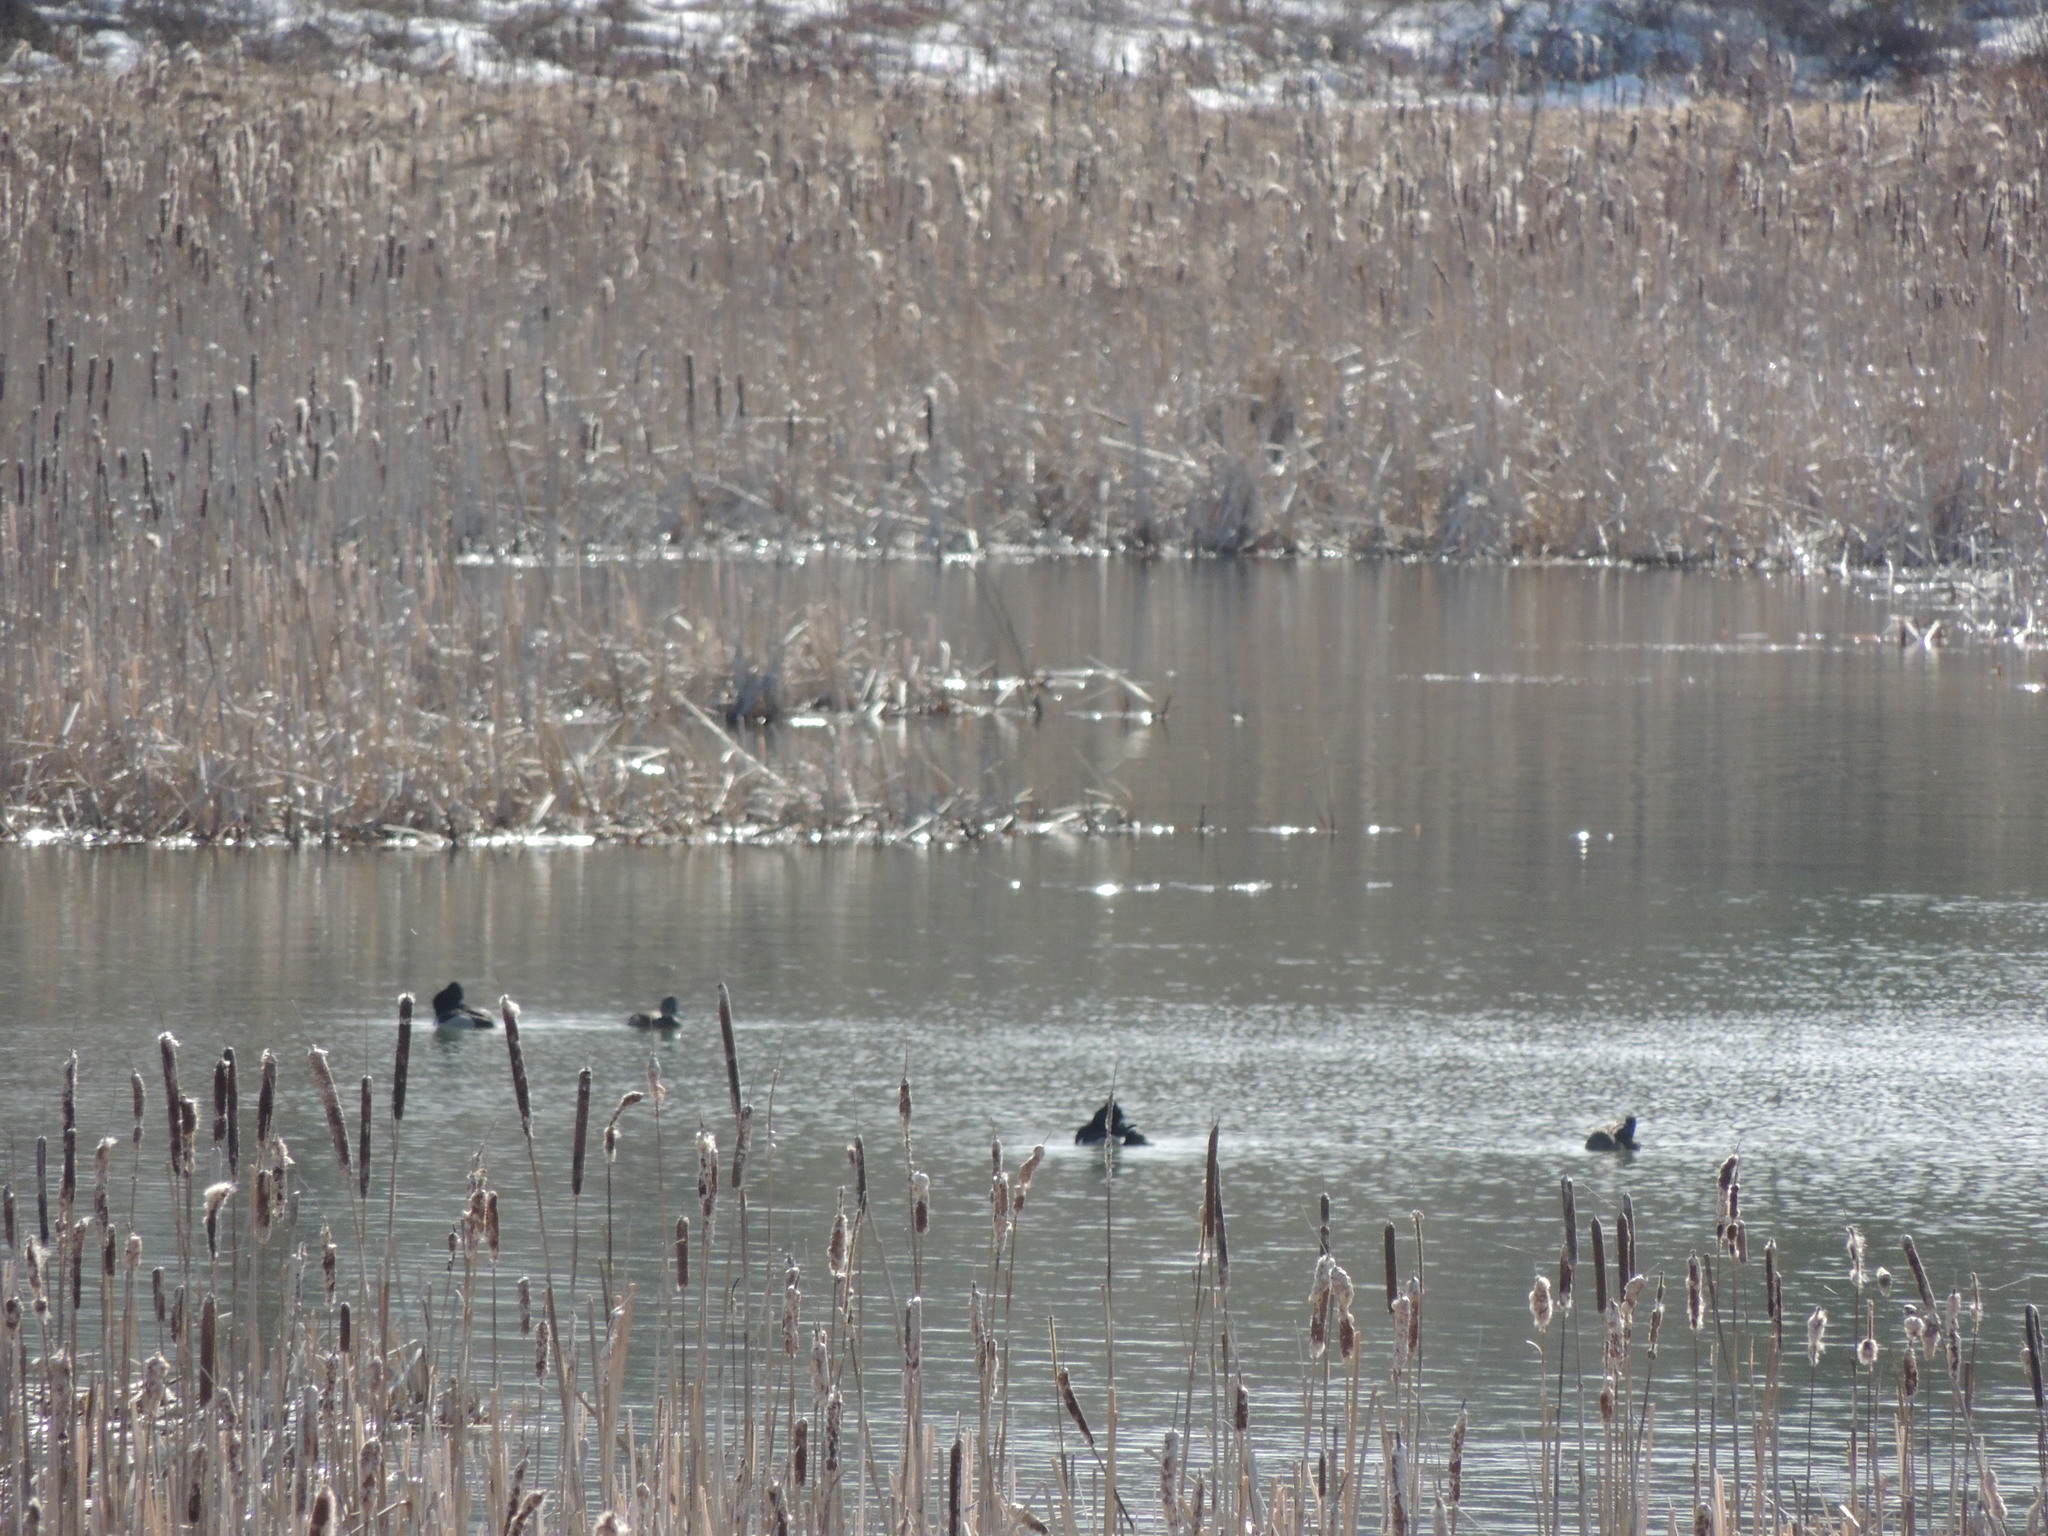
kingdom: Animalia
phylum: Chordata
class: Aves
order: Anseriformes
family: Anatidae
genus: Aythya
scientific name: Aythya collaris
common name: Ring-necked duck
